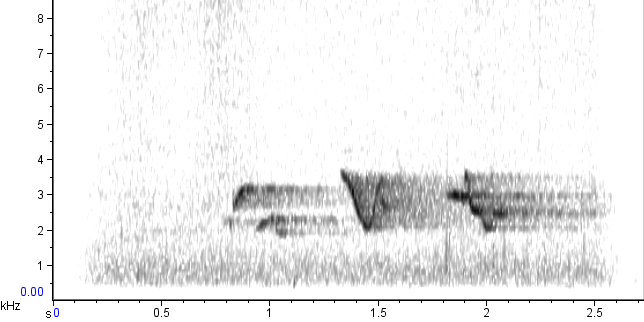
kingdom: Animalia
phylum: Chordata
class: Aves
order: Passeriformes
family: Turdidae
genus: Turdus
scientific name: Turdus migratorius
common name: American robin
